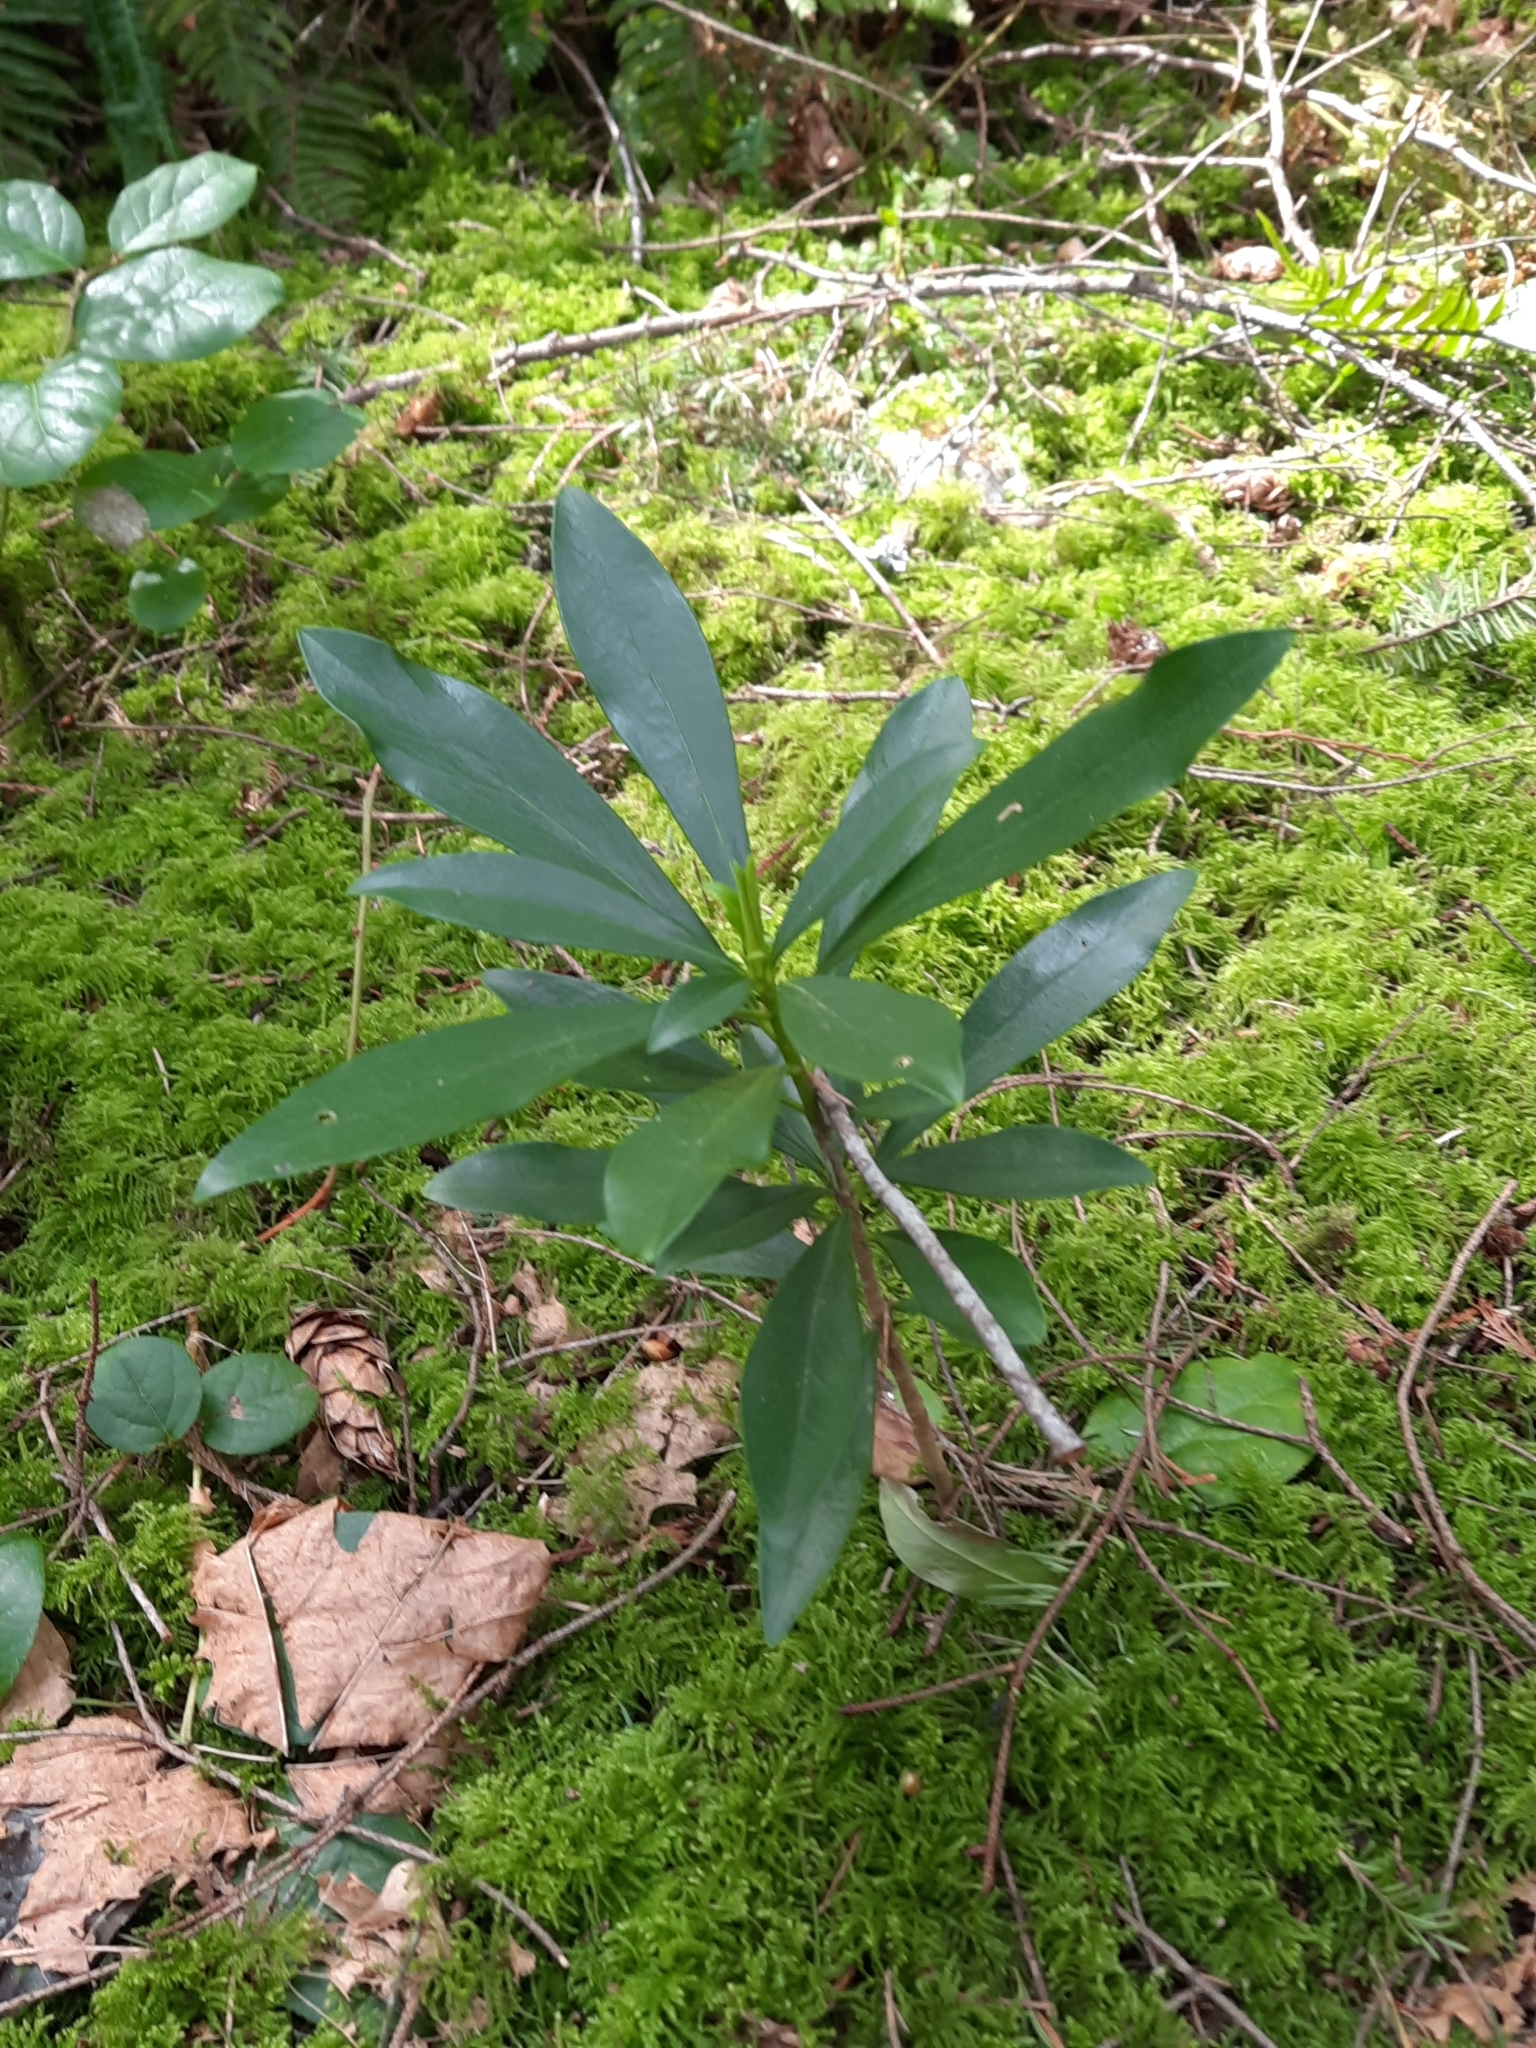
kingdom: Plantae
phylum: Tracheophyta
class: Magnoliopsida
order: Malvales
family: Thymelaeaceae
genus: Daphne
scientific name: Daphne laureola
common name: Spurge-laurel
